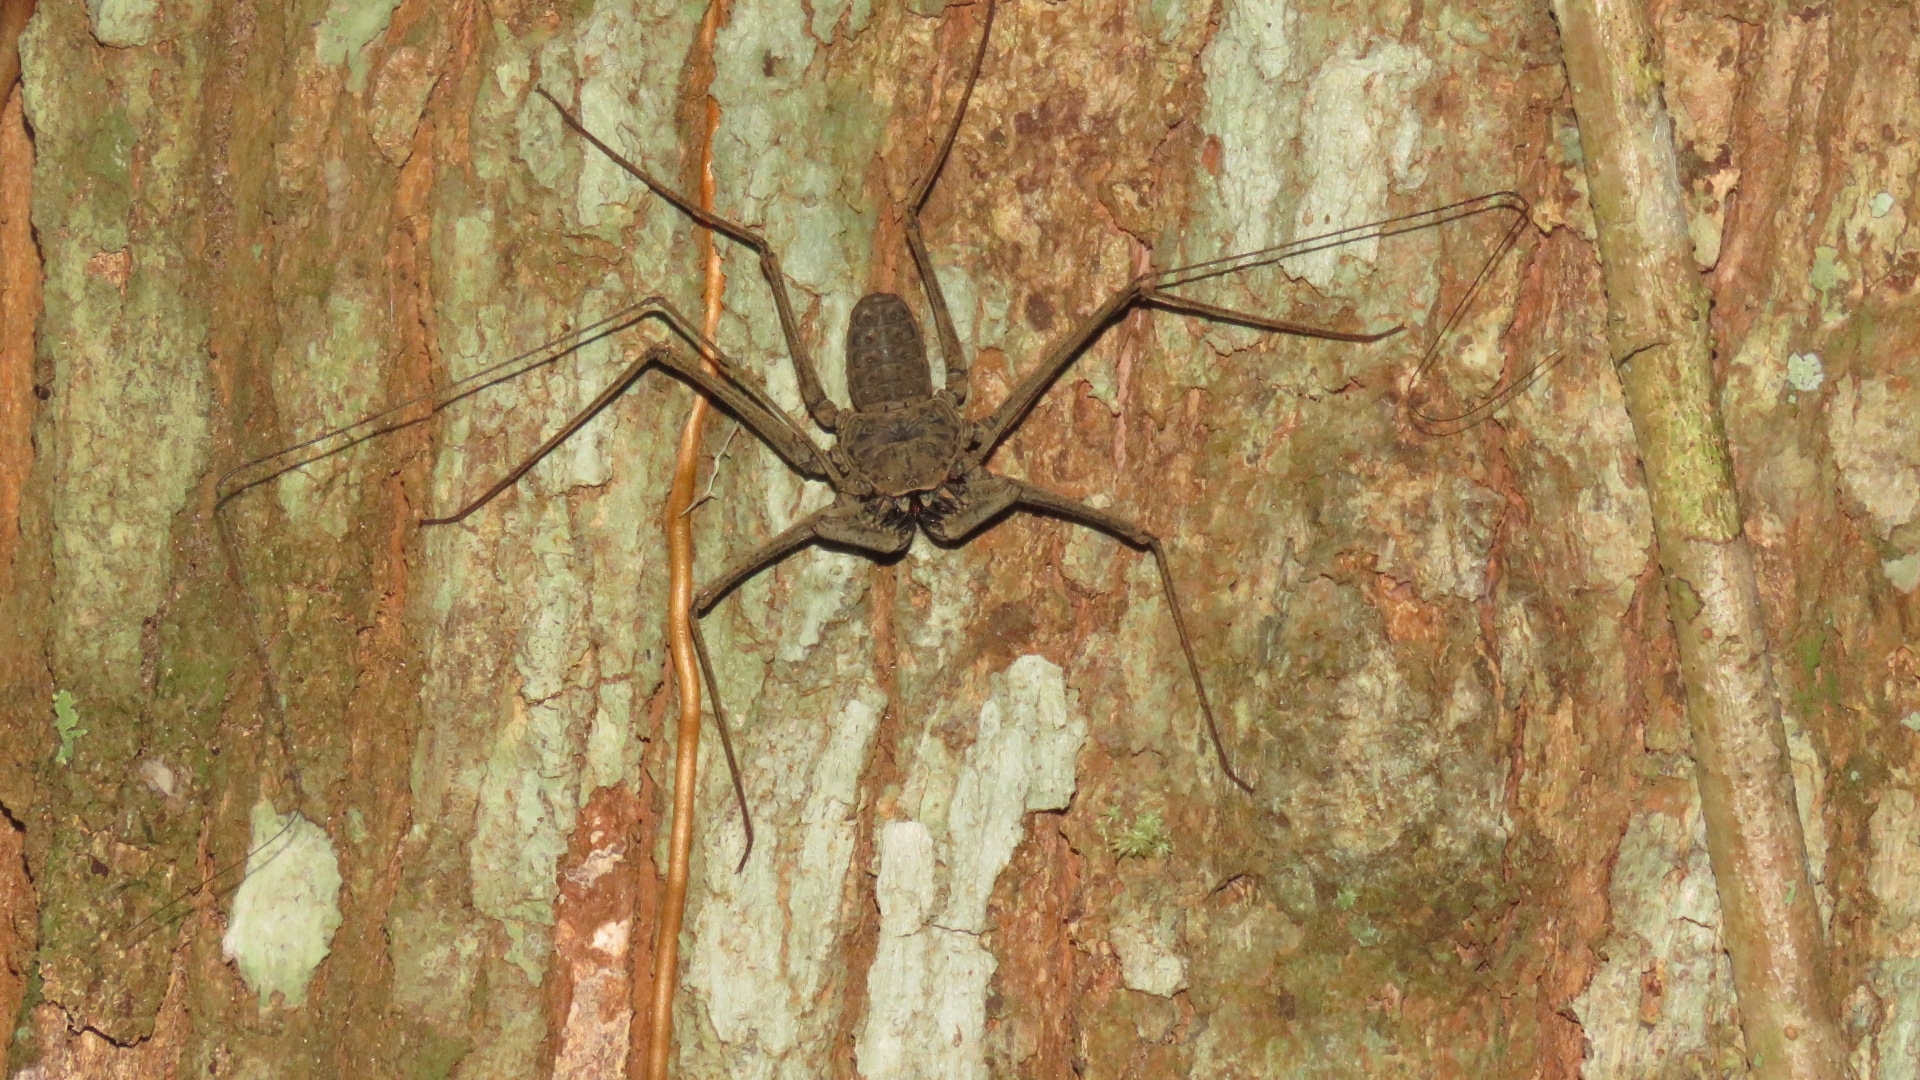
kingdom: Animalia
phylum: Arthropoda
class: Arachnida
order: Amblypygi
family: Phrynidae
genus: Paraphrynus
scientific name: Paraphrynus laevifrons
